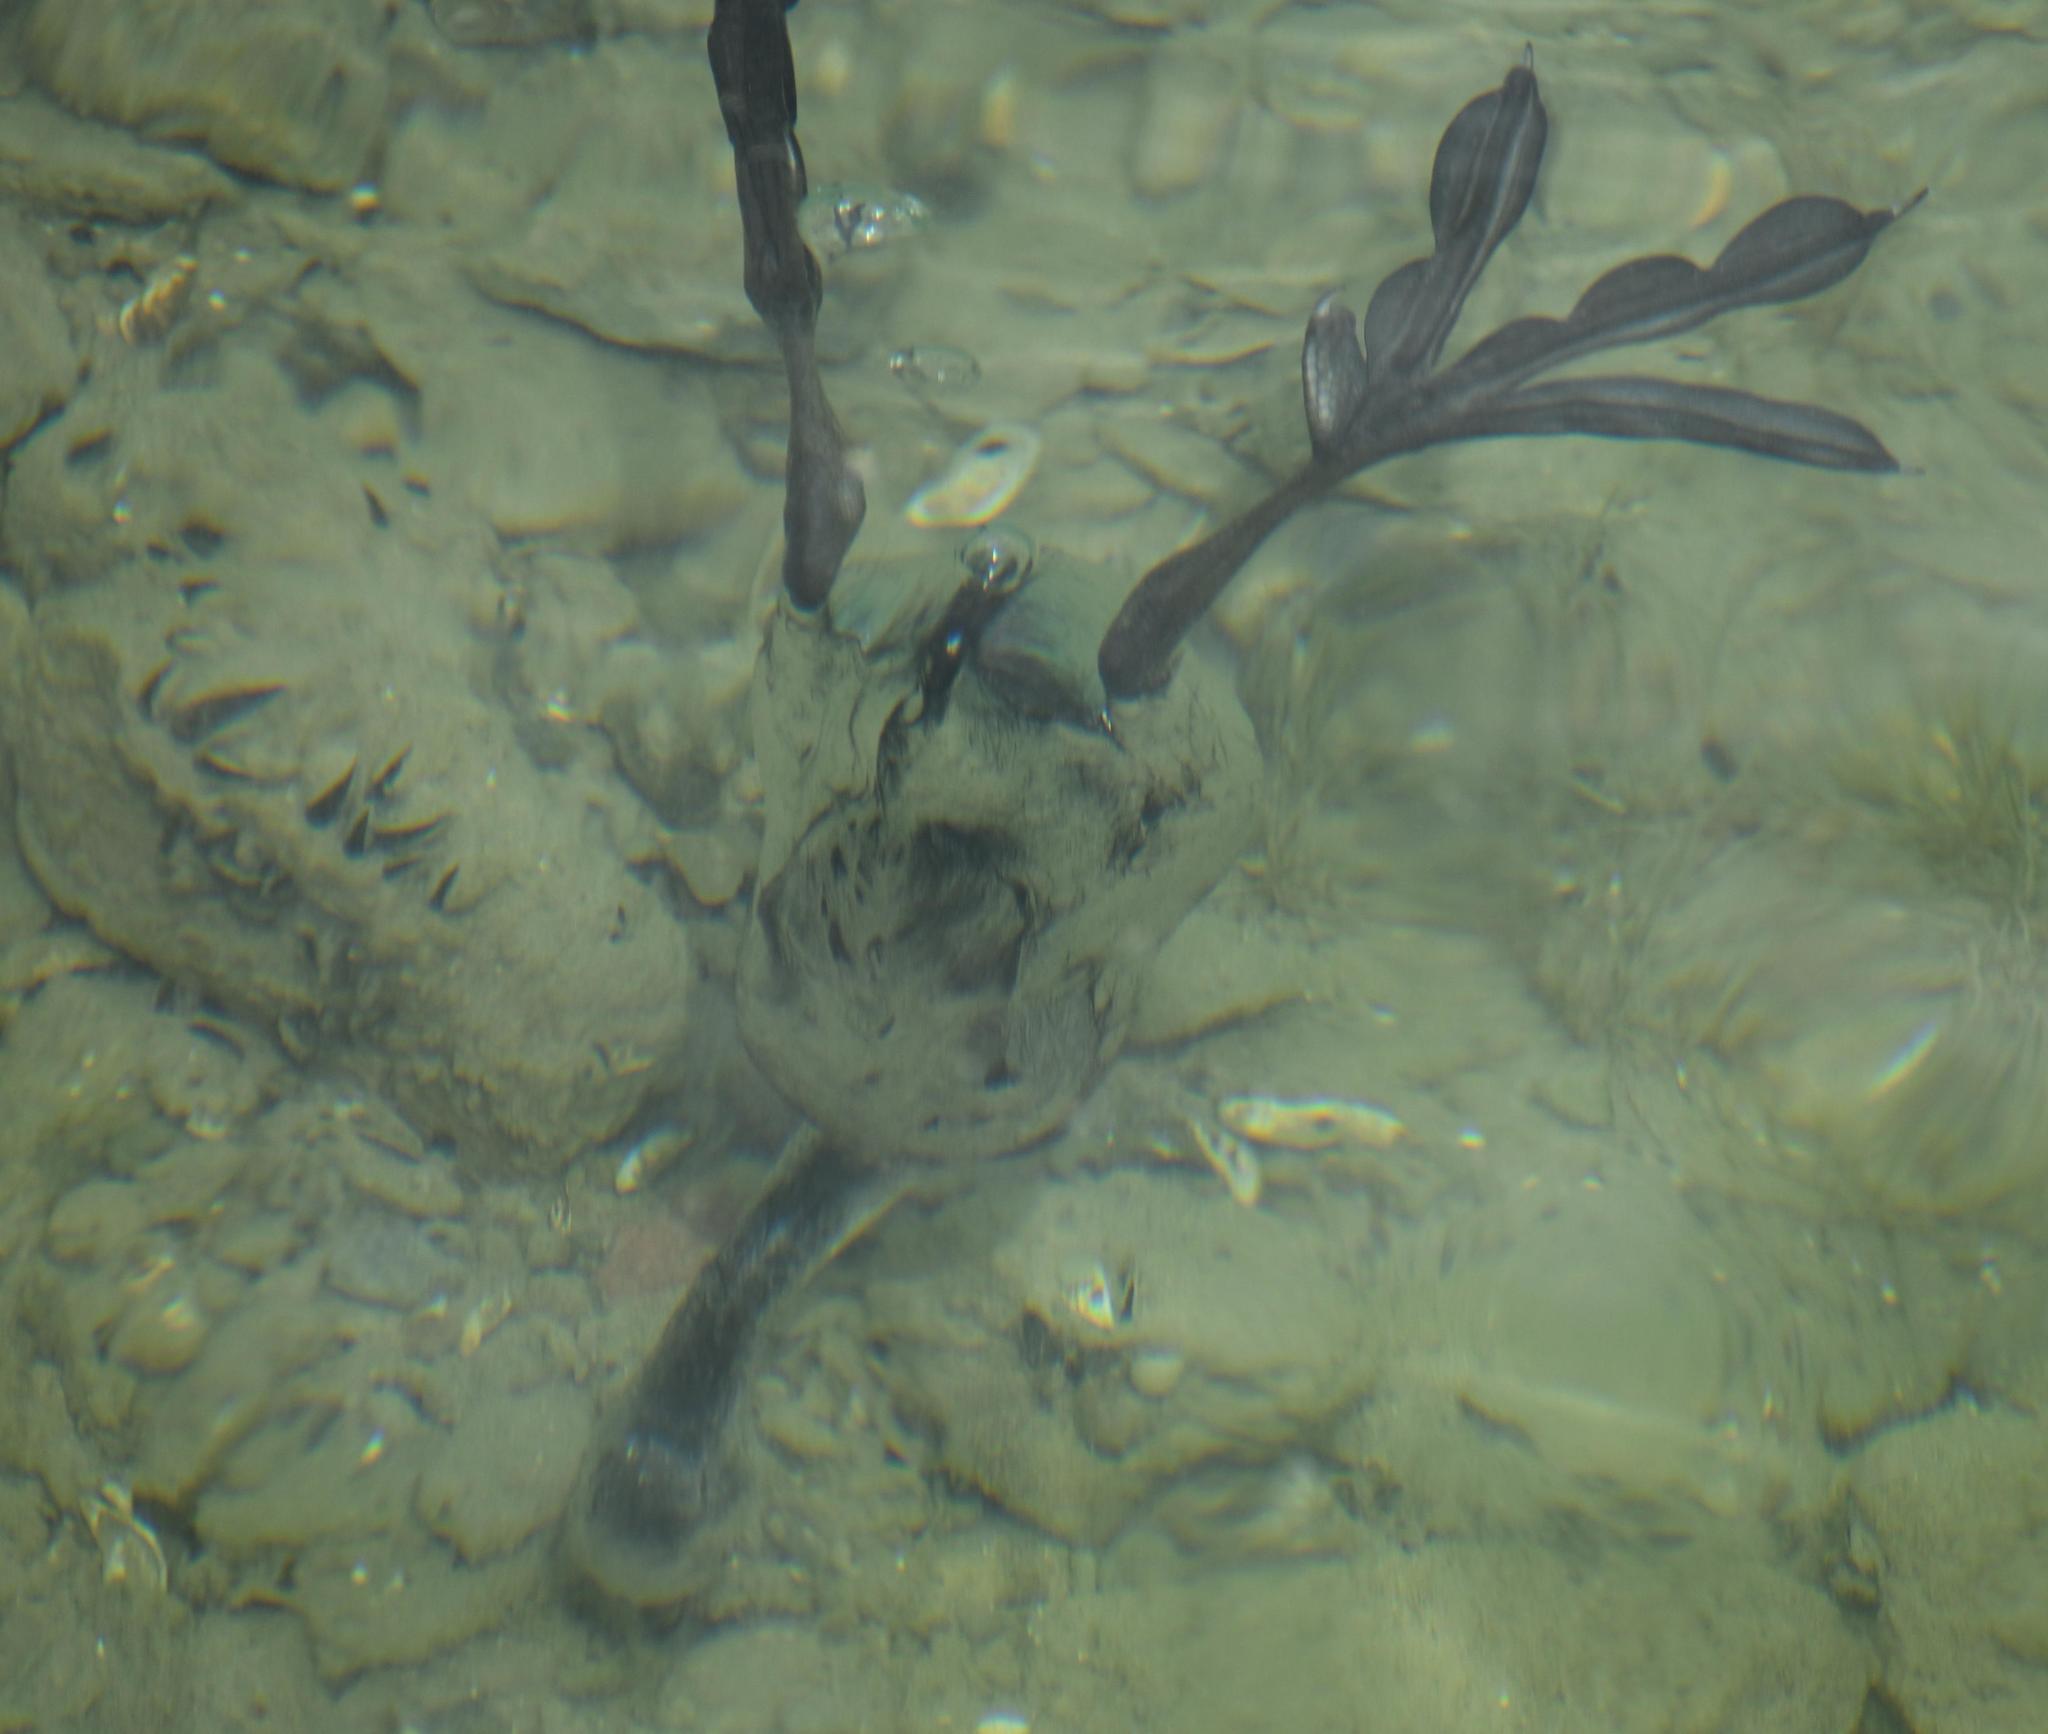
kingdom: Animalia
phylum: Chordata
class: Aves
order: Gruiformes
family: Rallidae
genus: Fulica
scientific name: Fulica atra
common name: Eurasian coot
